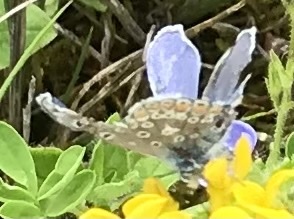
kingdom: Animalia
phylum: Arthropoda
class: Insecta
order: Lepidoptera
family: Lycaenidae
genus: Polyommatus
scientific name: Polyommatus icarus
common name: Common blue
